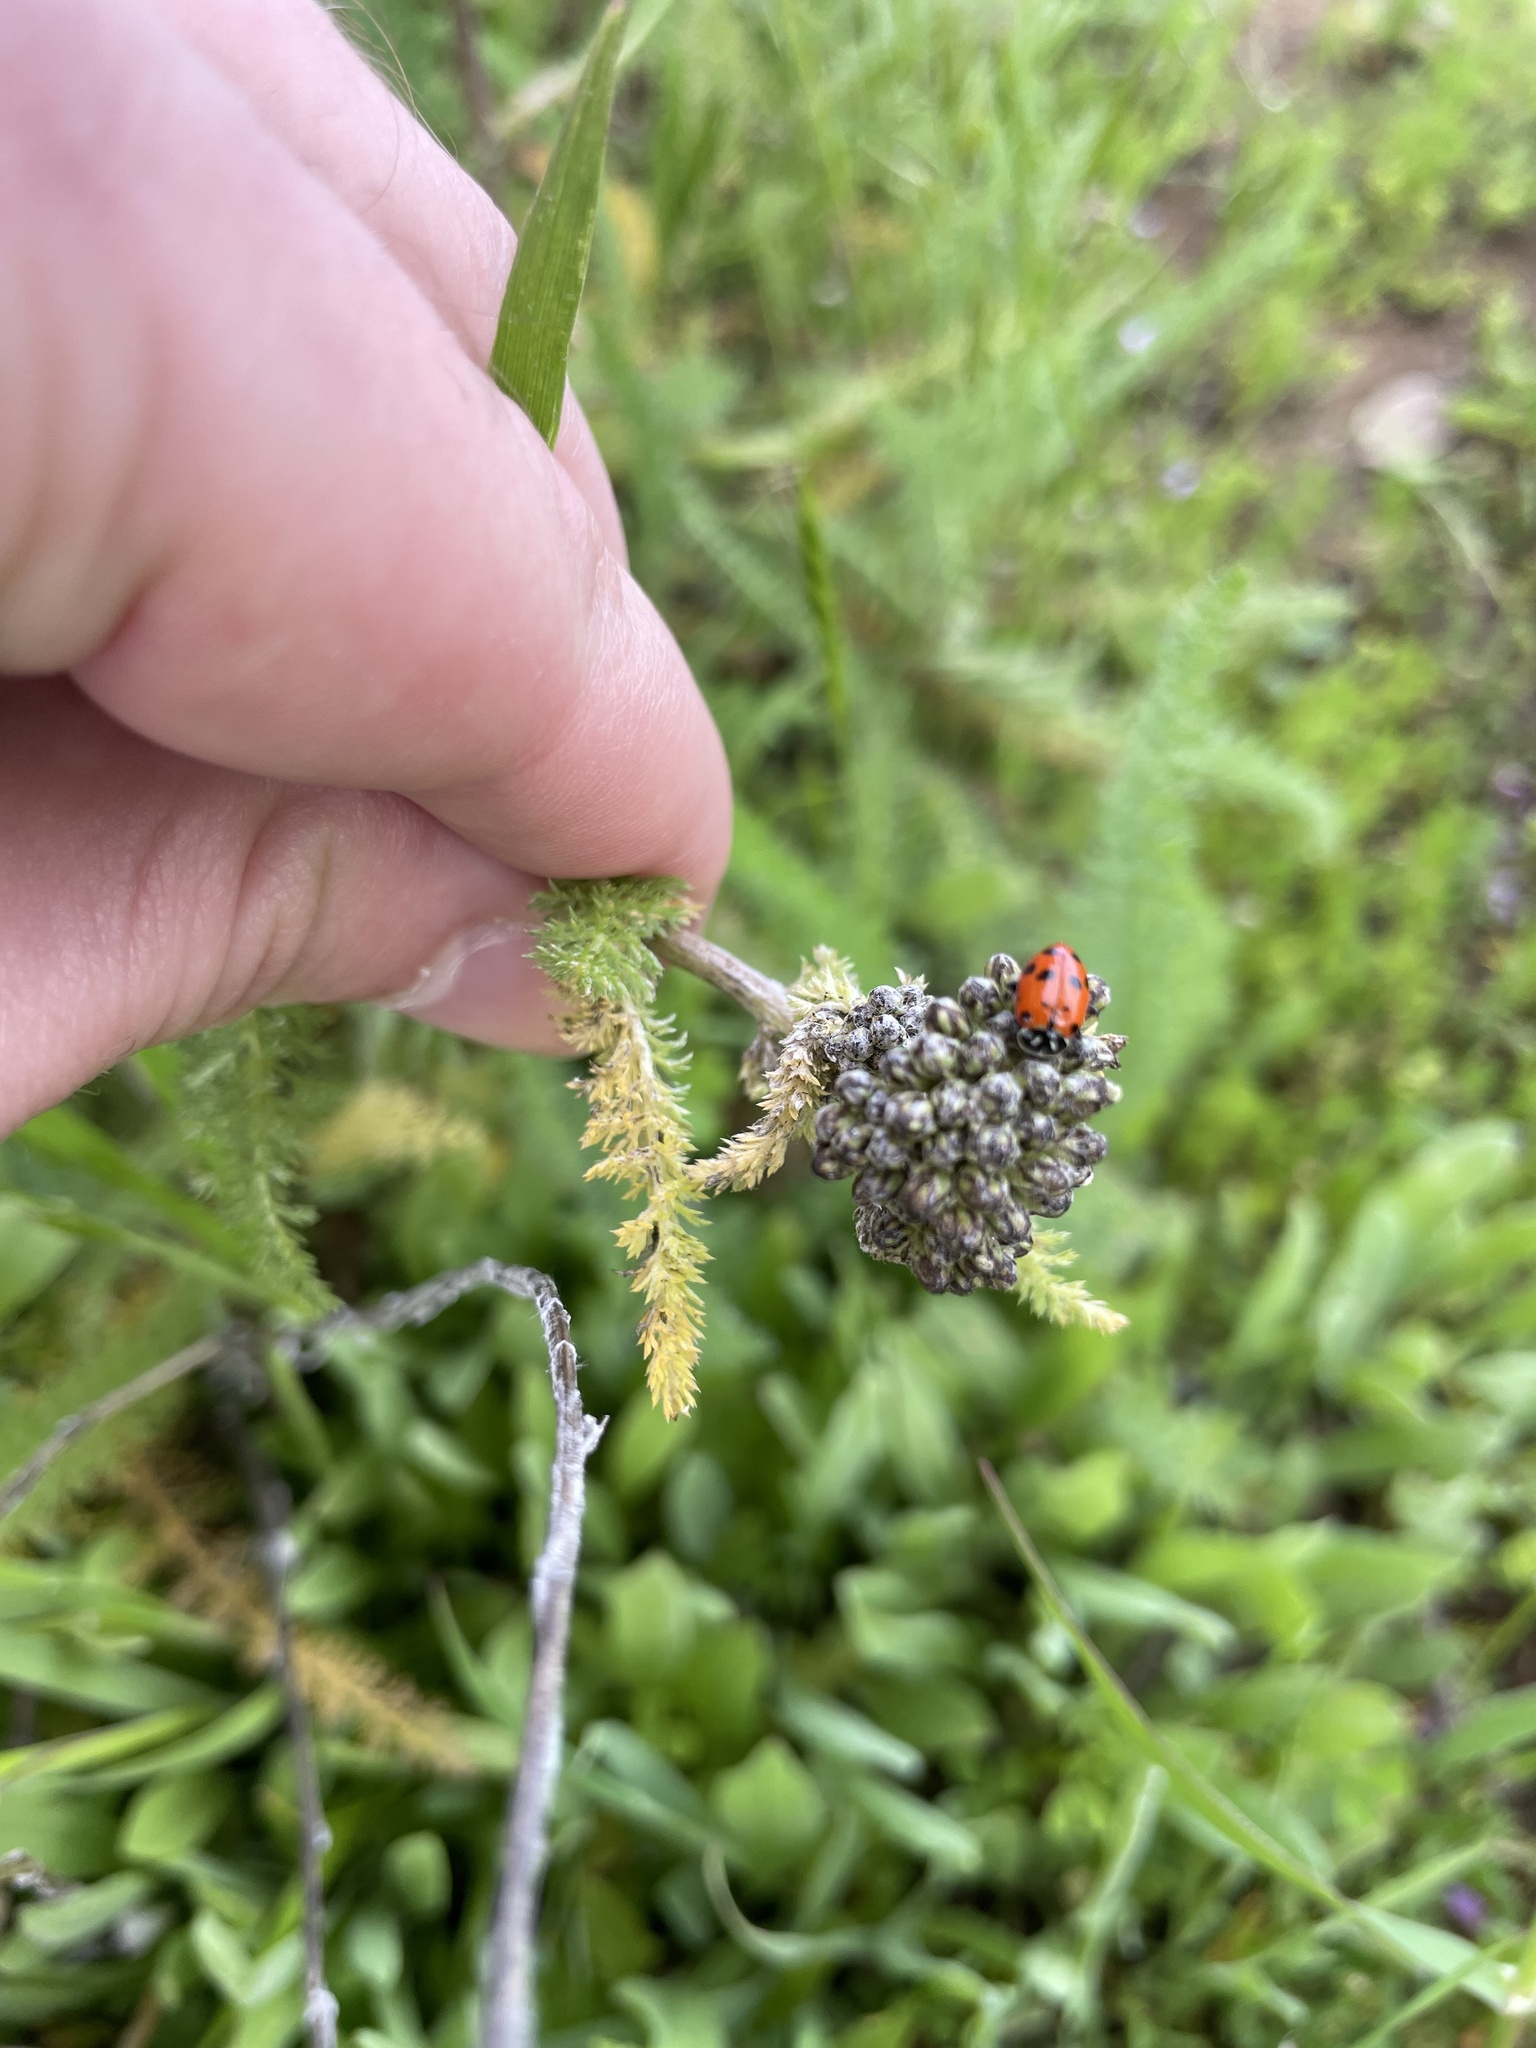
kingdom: Animalia
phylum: Arthropoda
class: Insecta
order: Coleoptera
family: Coccinellidae
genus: Hippodamia
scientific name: Hippodamia convergens
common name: Convergent lady beetle
